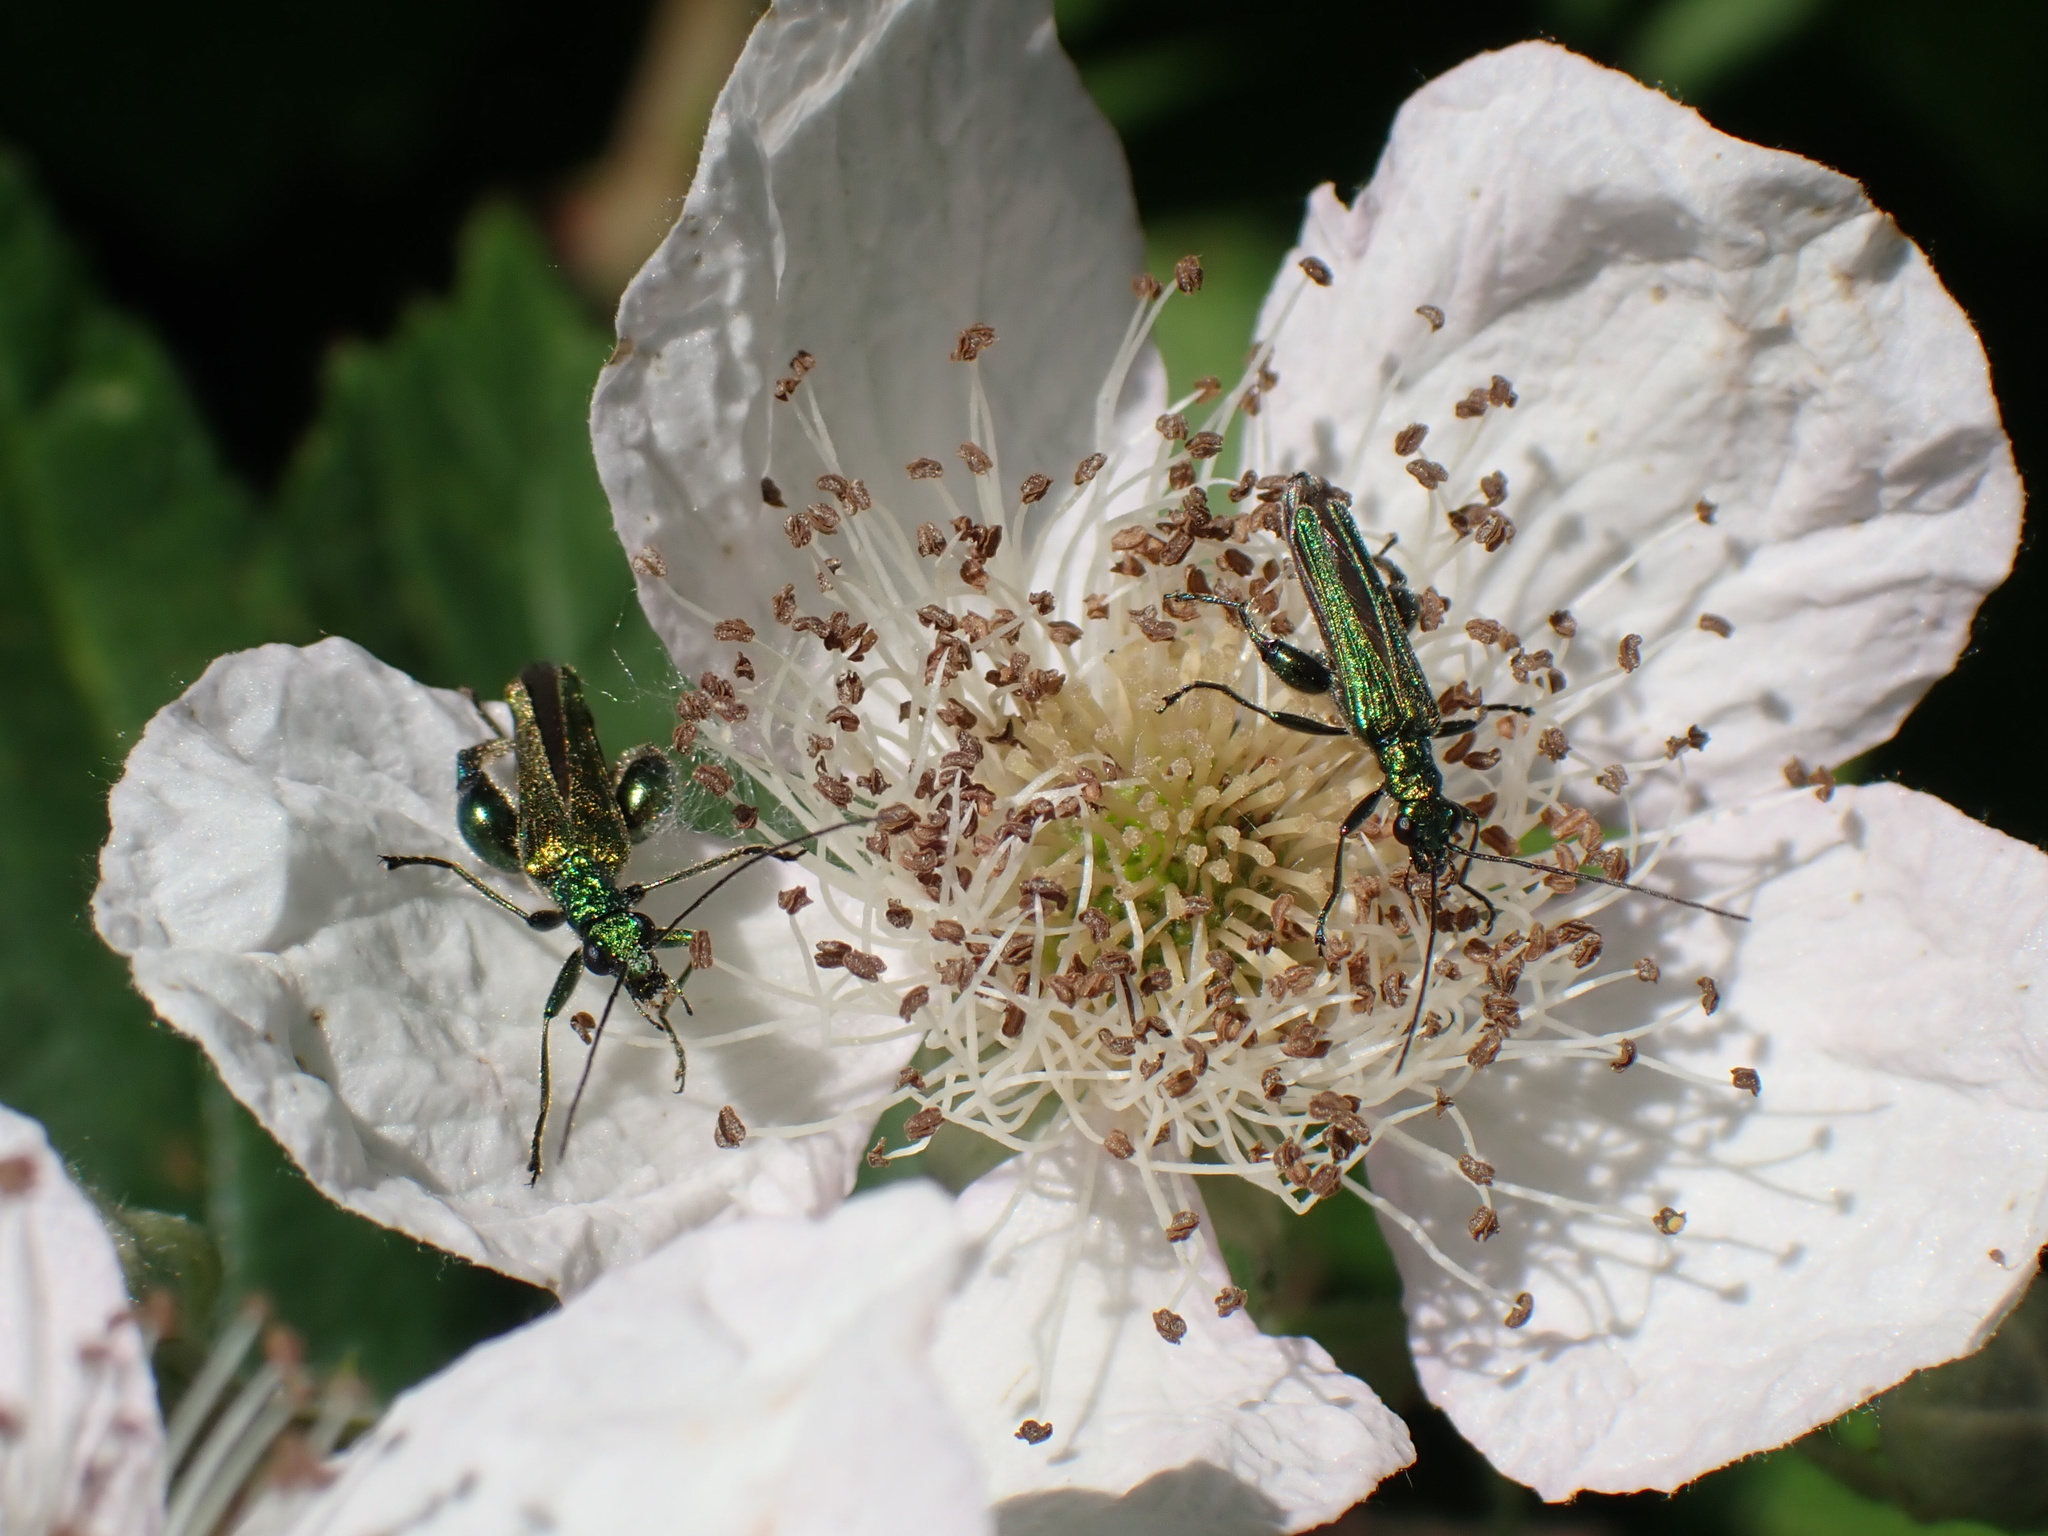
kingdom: Animalia
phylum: Arthropoda
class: Insecta
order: Coleoptera
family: Oedemeridae
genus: Oedemera
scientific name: Oedemera nobilis
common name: Swollen-thighed beetle
